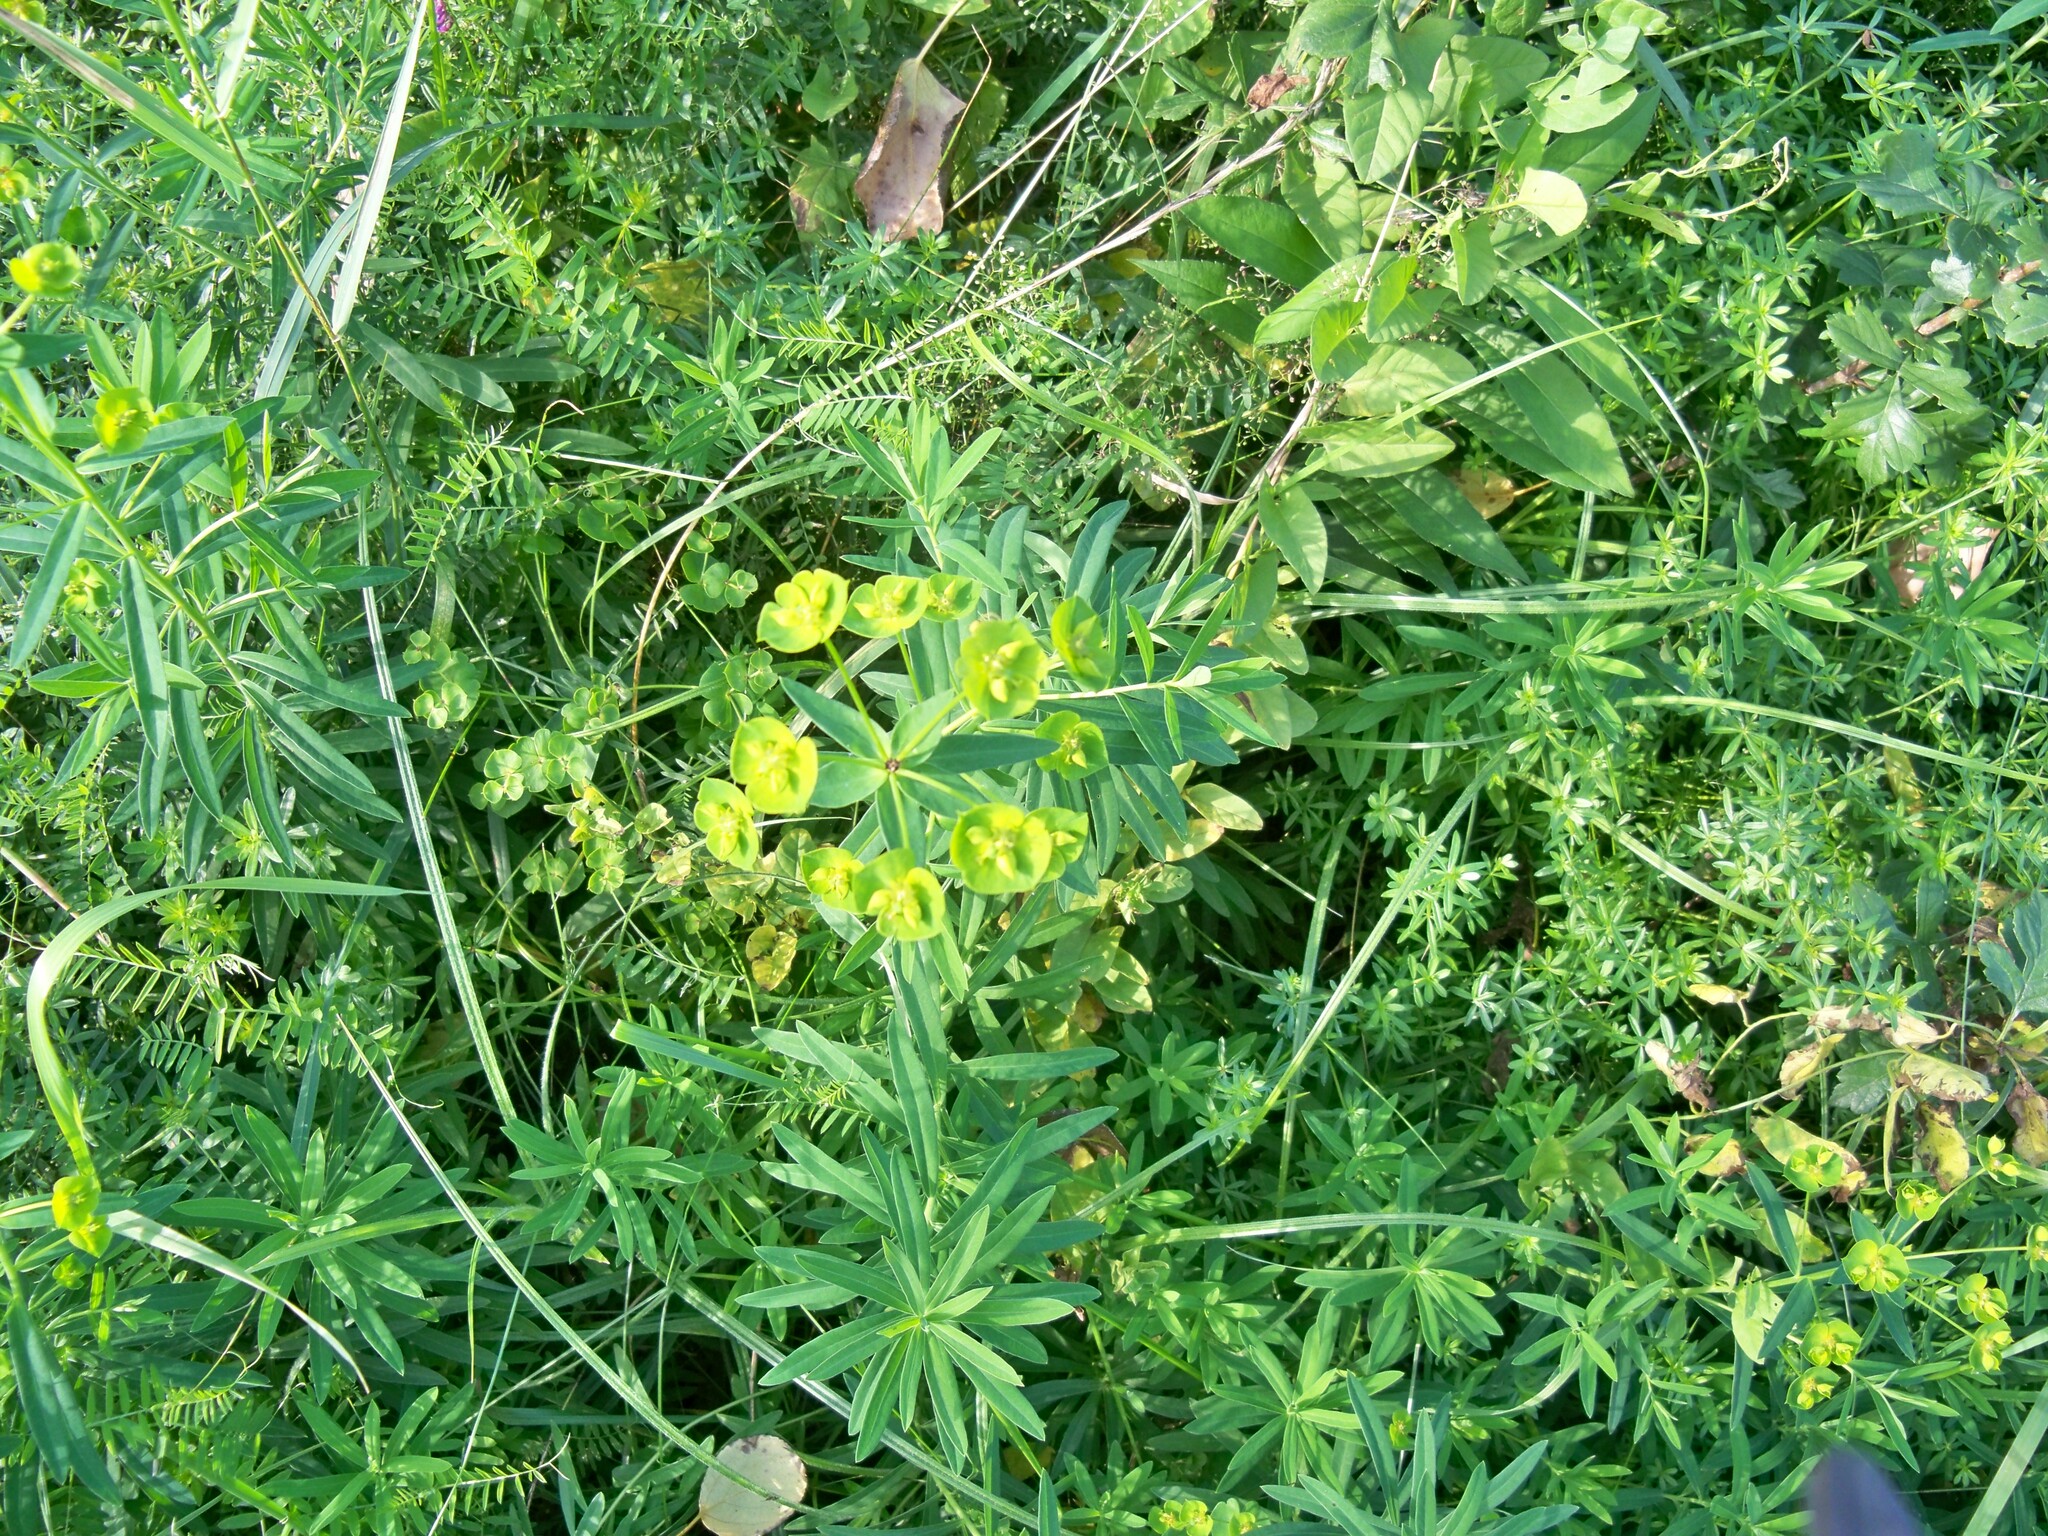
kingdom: Plantae
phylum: Tracheophyta
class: Magnoliopsida
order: Malpighiales
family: Euphorbiaceae
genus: Euphorbia
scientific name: Euphorbia esula
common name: Leafy spurge
